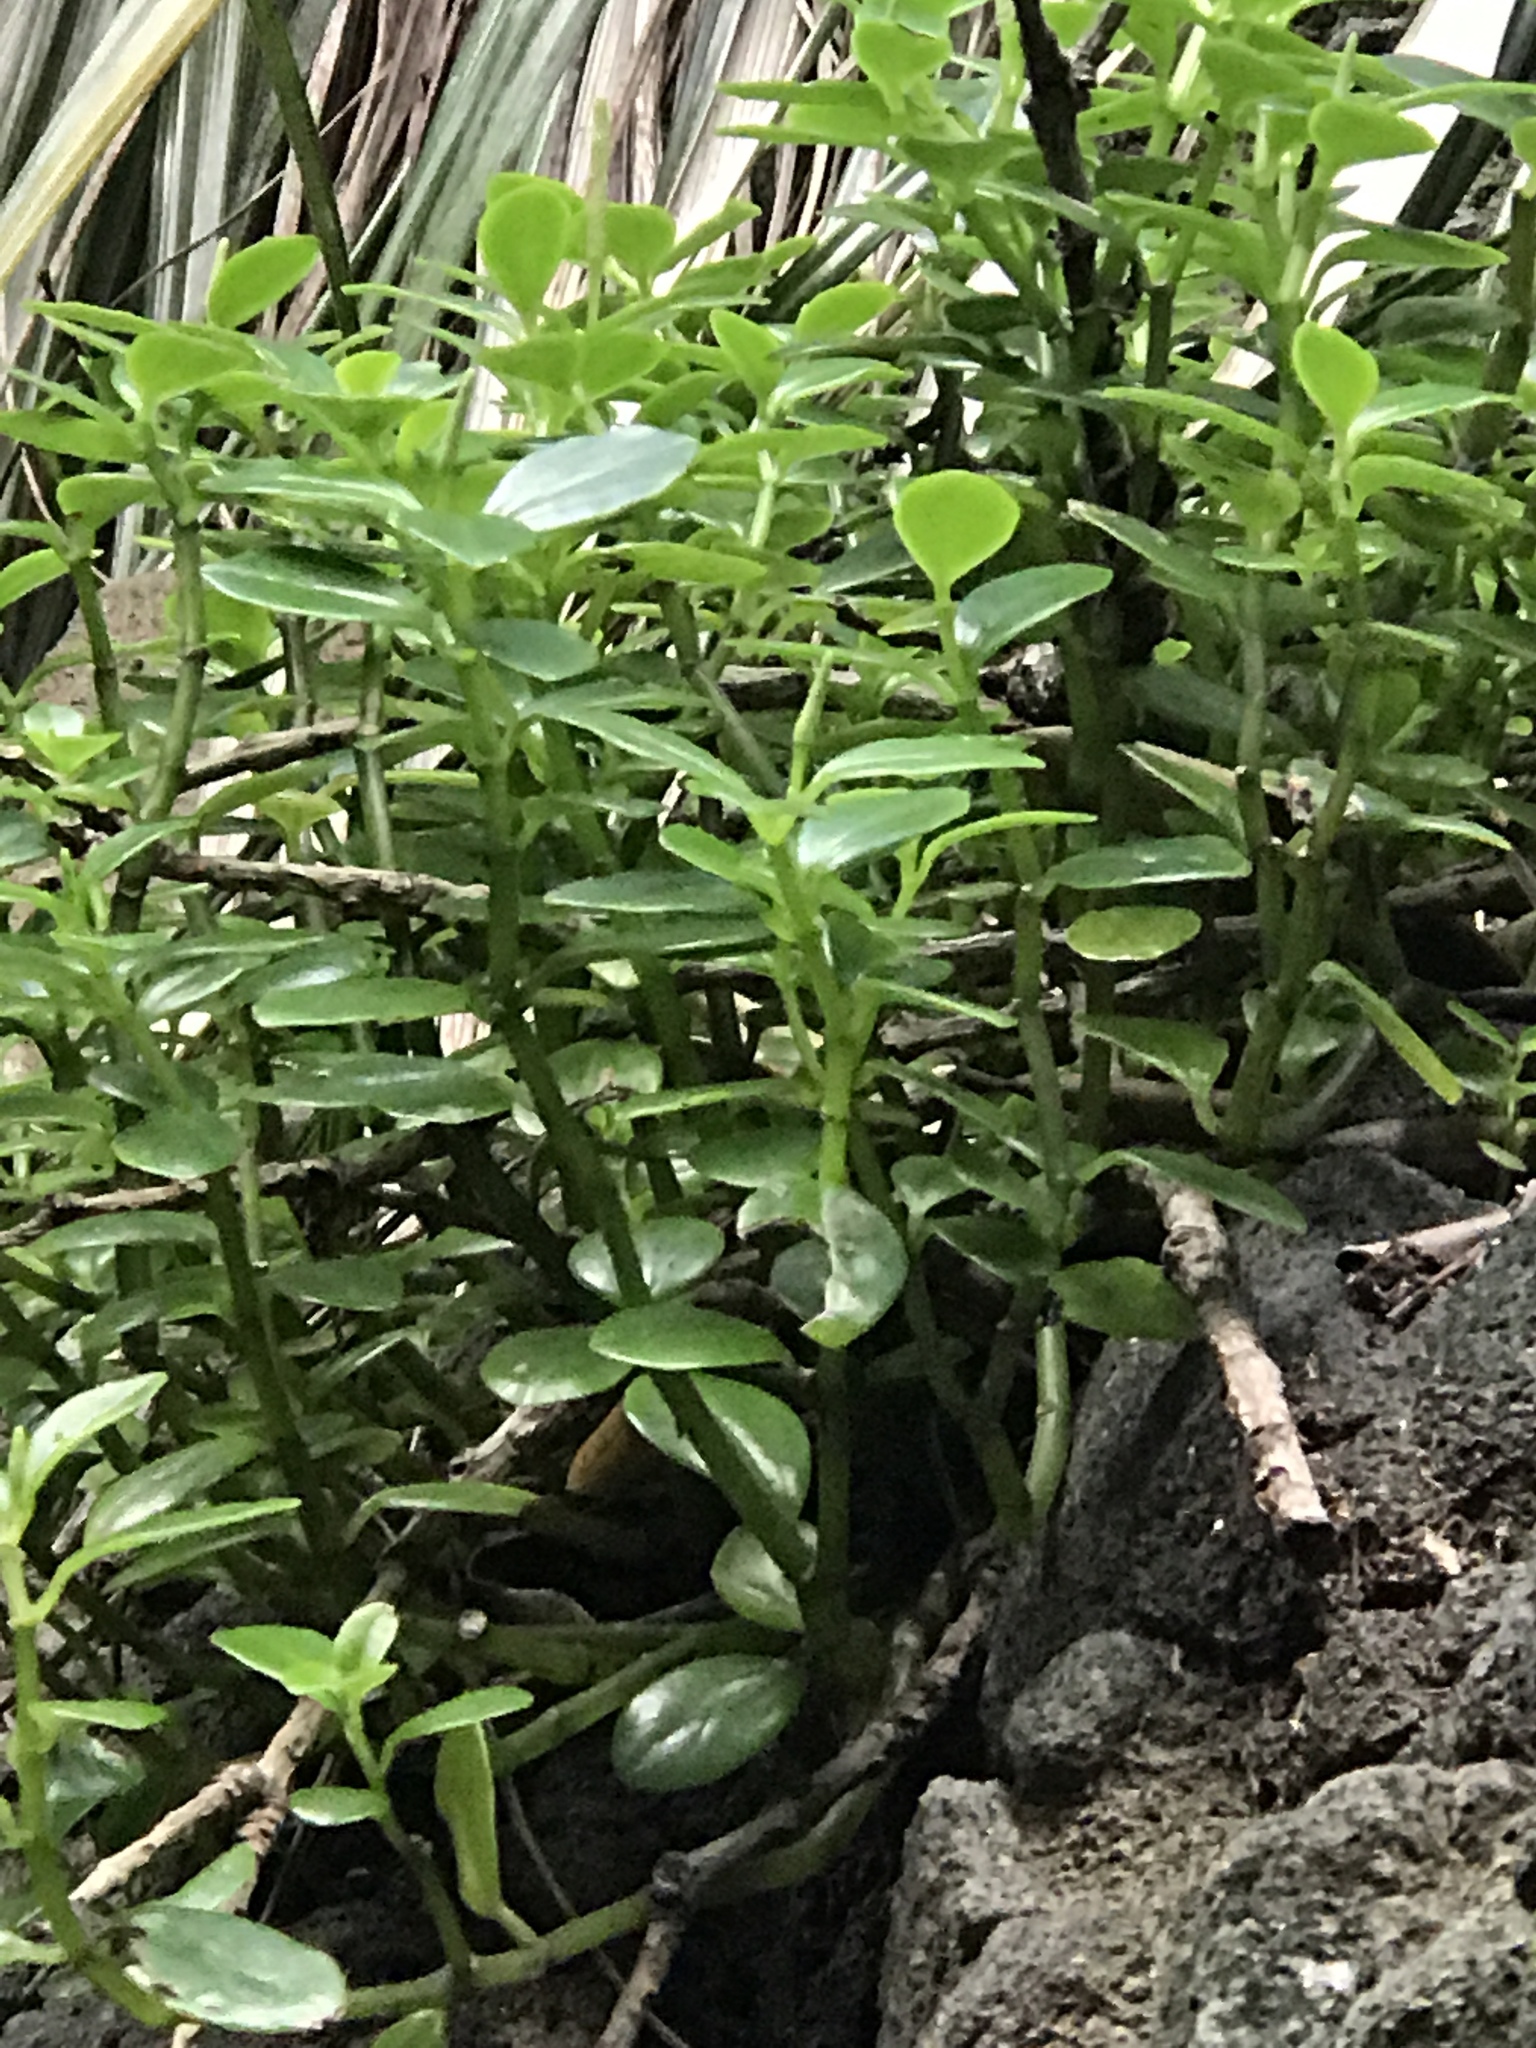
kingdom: Plantae
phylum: Tracheophyta
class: Magnoliopsida
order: Piperales
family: Piperaceae
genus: Peperomia
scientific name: Peperomia urvilleana
